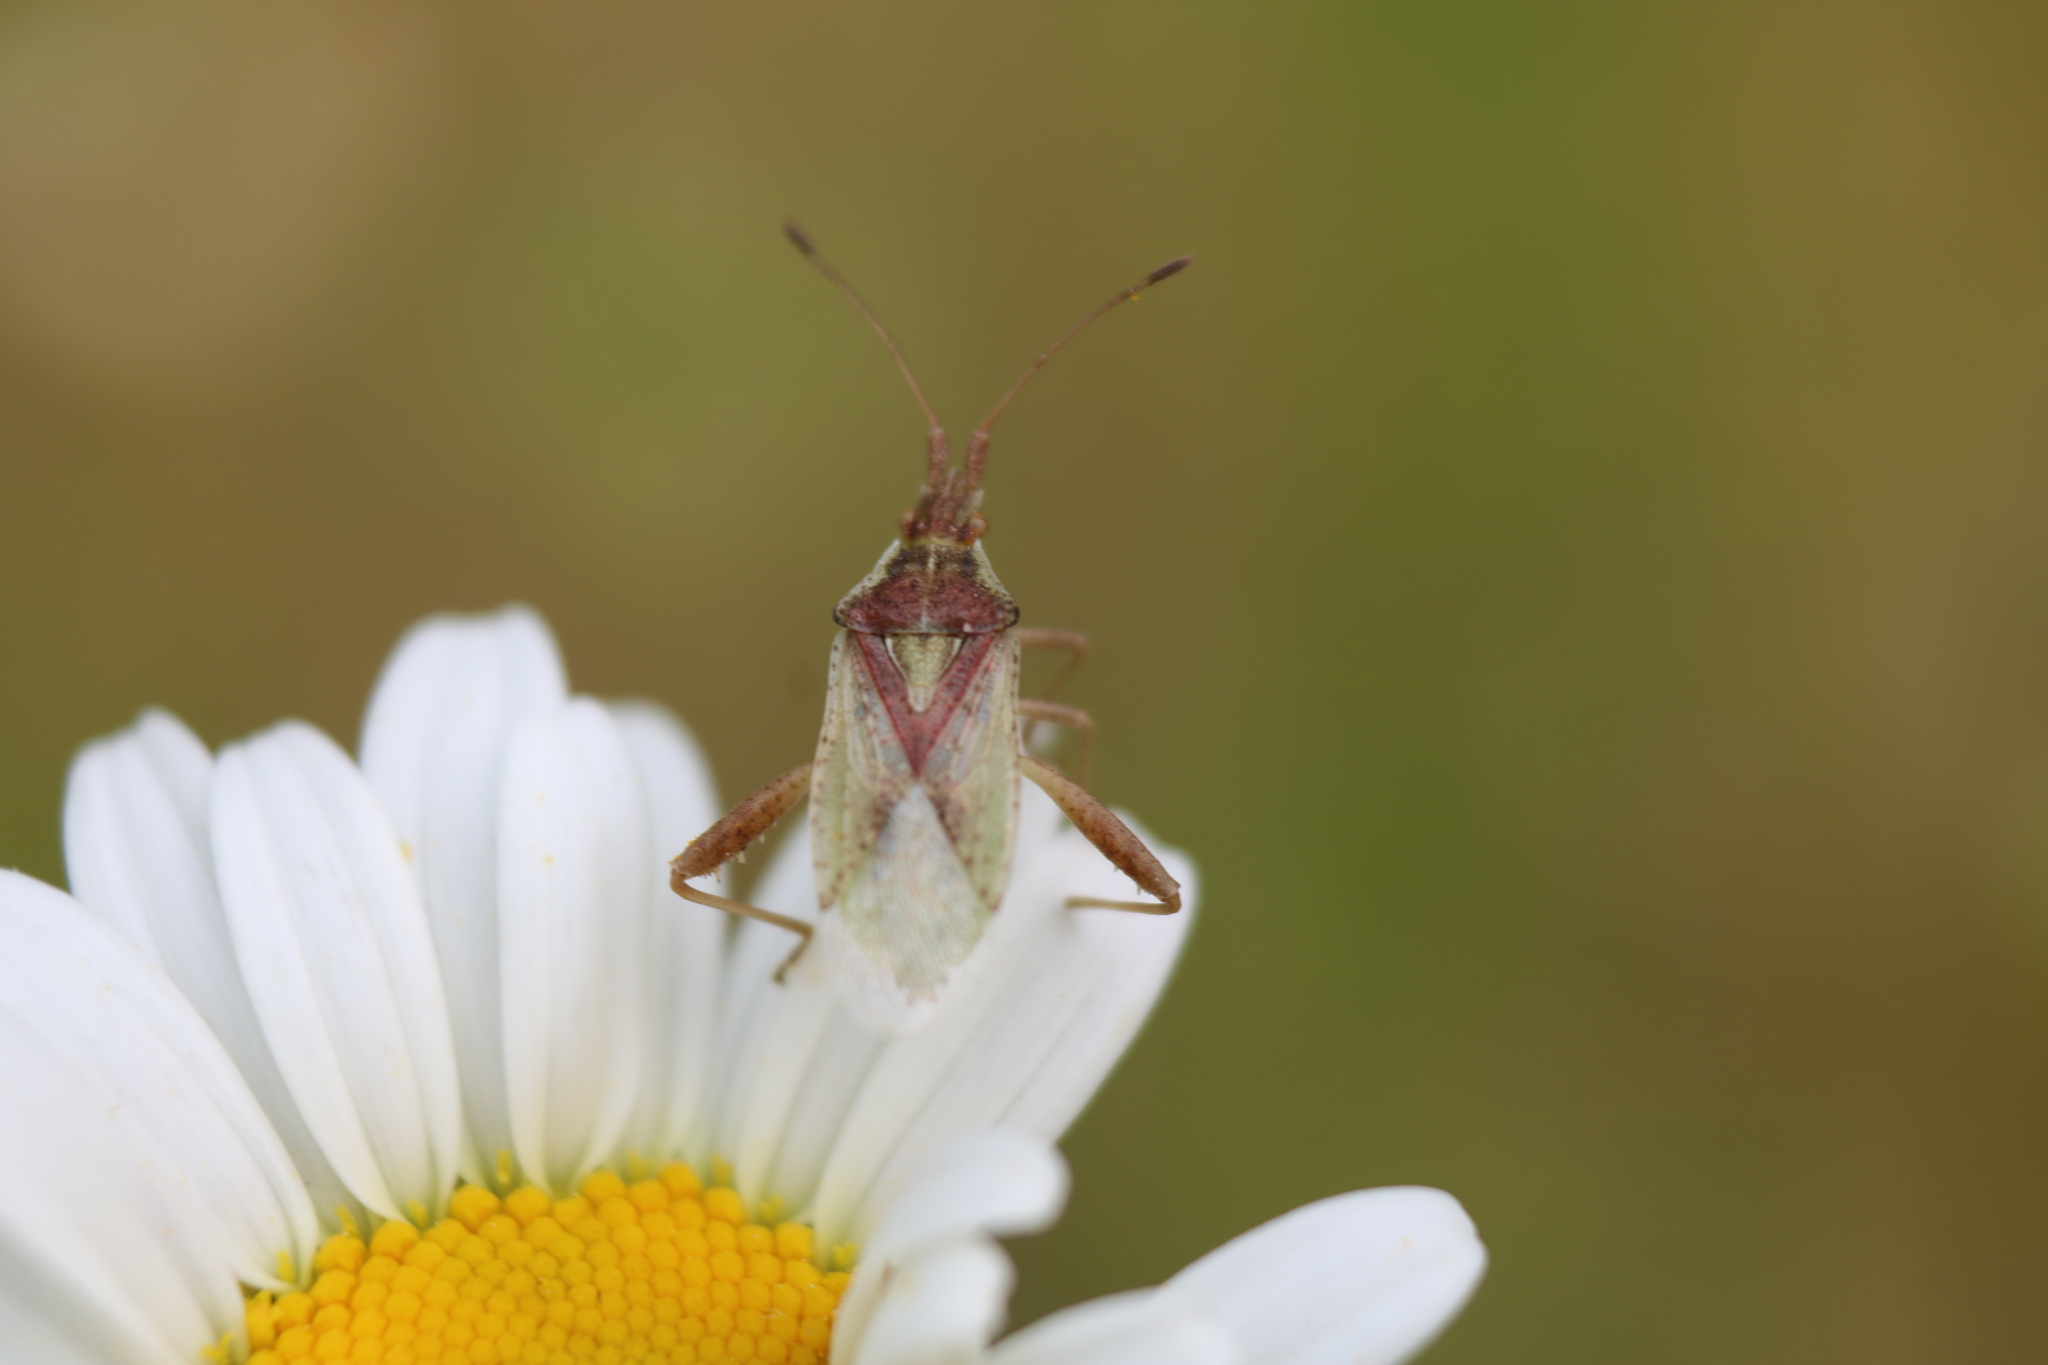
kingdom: Animalia
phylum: Arthropoda
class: Insecta
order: Hemiptera
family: Rhopalidae
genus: Harmostes
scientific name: Harmostes reflexulus
